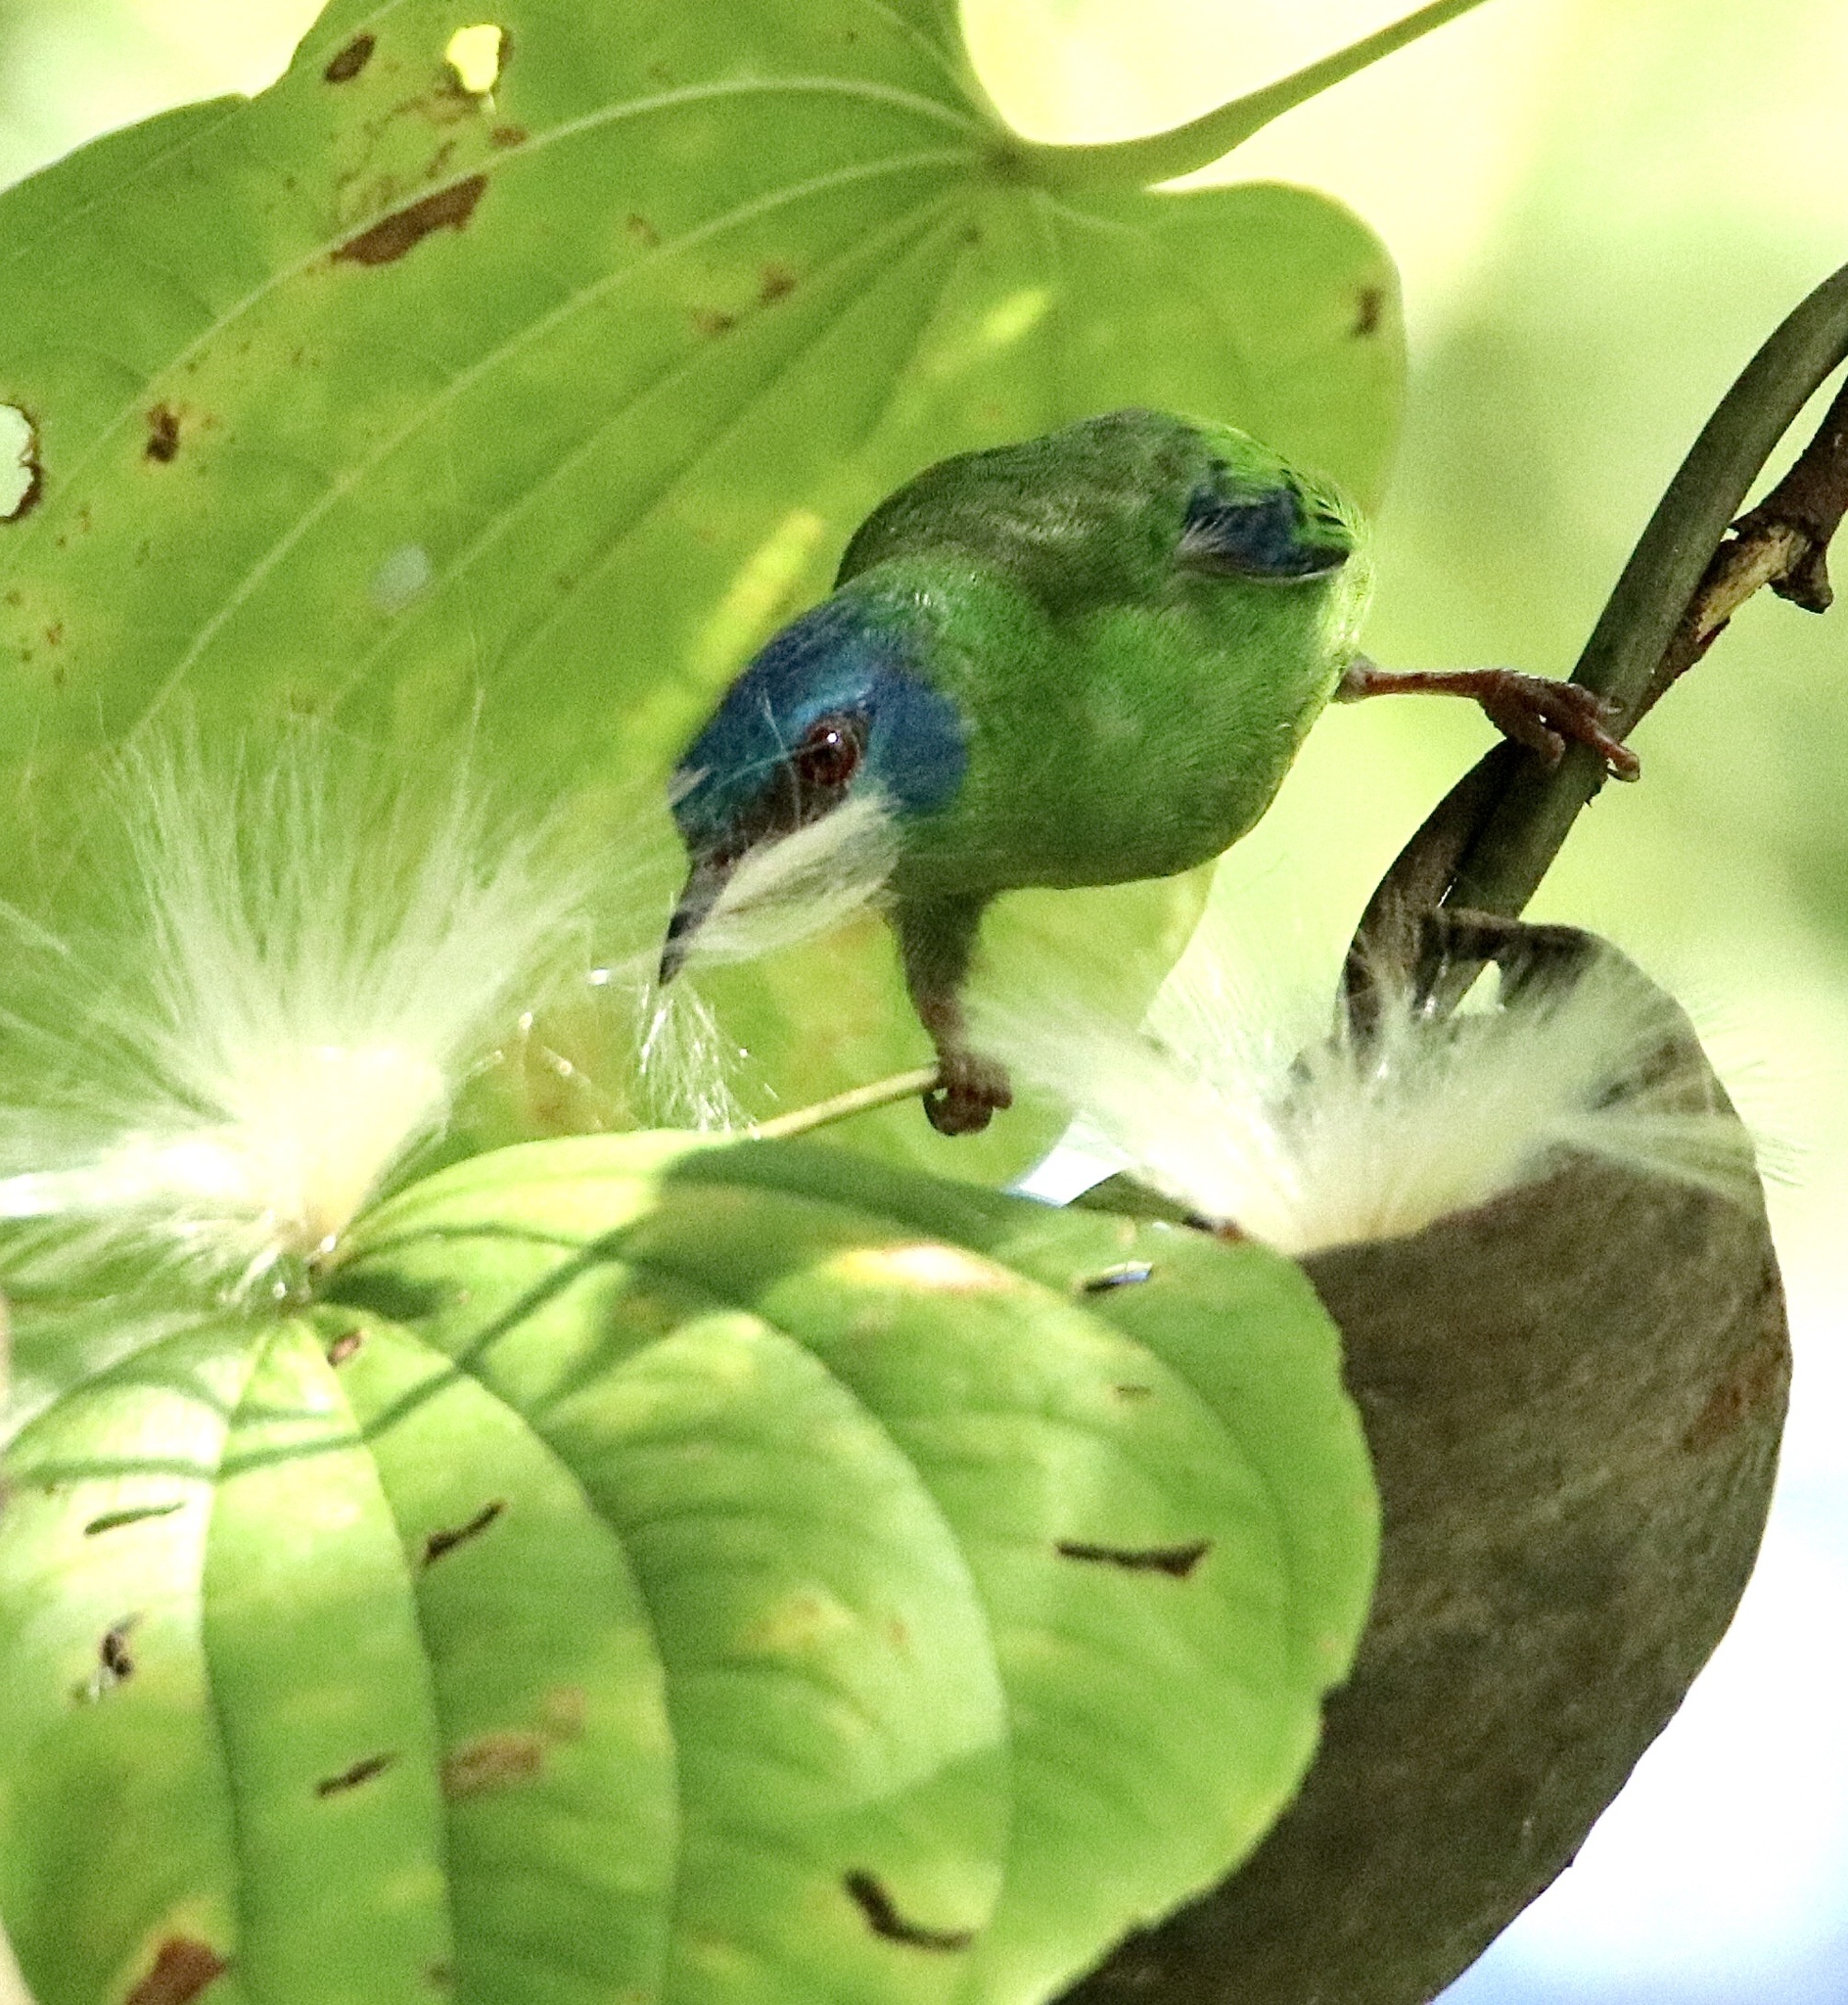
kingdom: Animalia
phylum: Chordata
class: Aves
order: Passeriformes
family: Thraupidae
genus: Dacnis
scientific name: Dacnis cayana
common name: Blue dacnis
